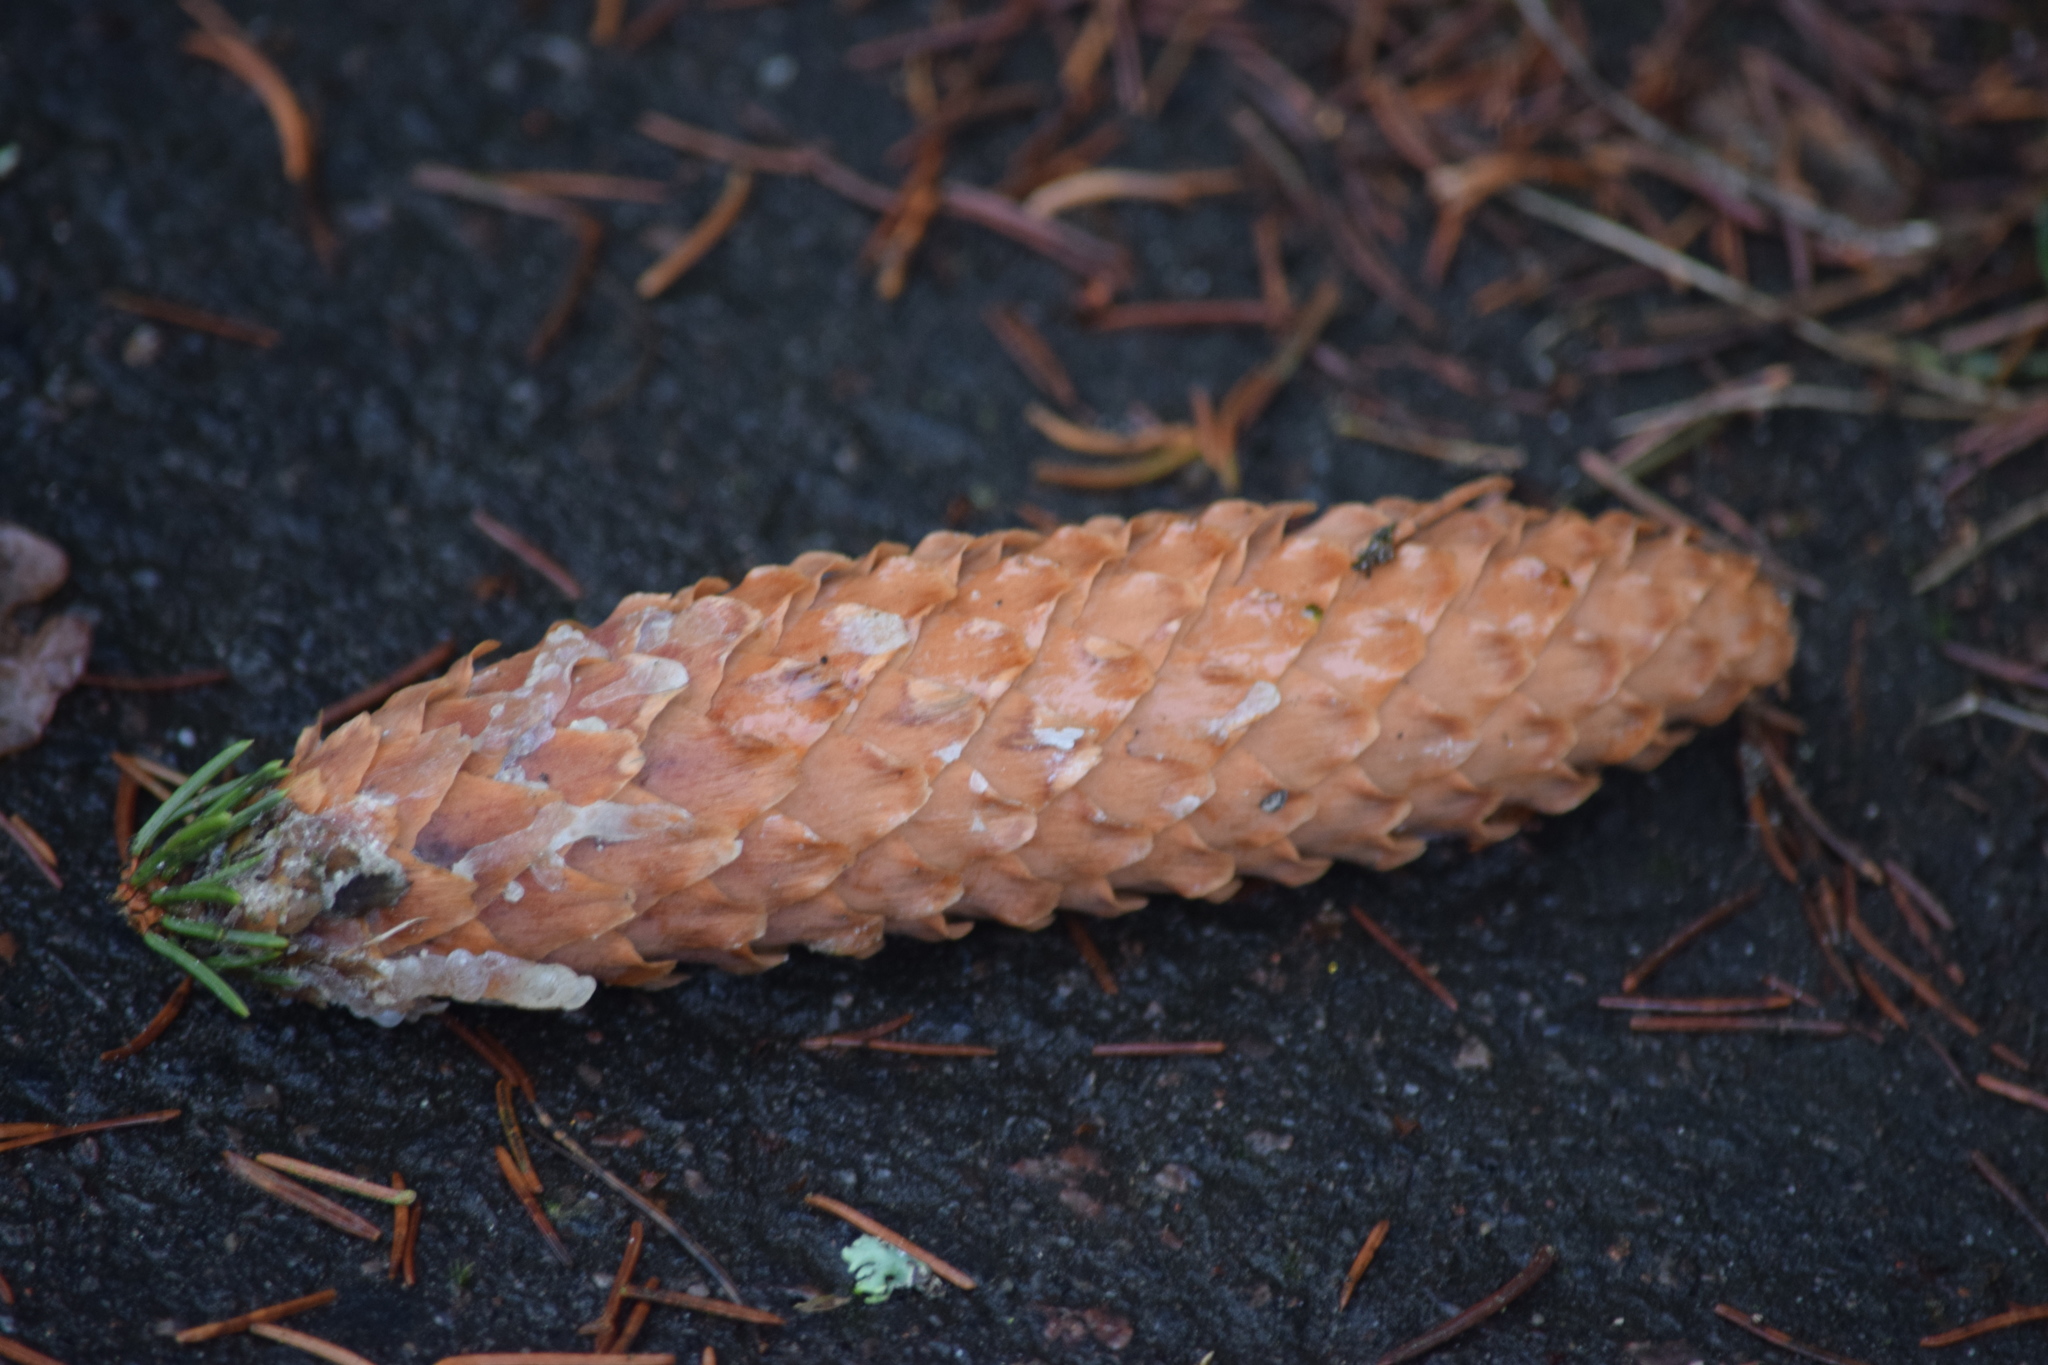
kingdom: Plantae
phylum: Tracheophyta
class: Pinopsida
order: Pinales
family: Pinaceae
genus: Picea
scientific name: Picea abies
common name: Norway spruce
